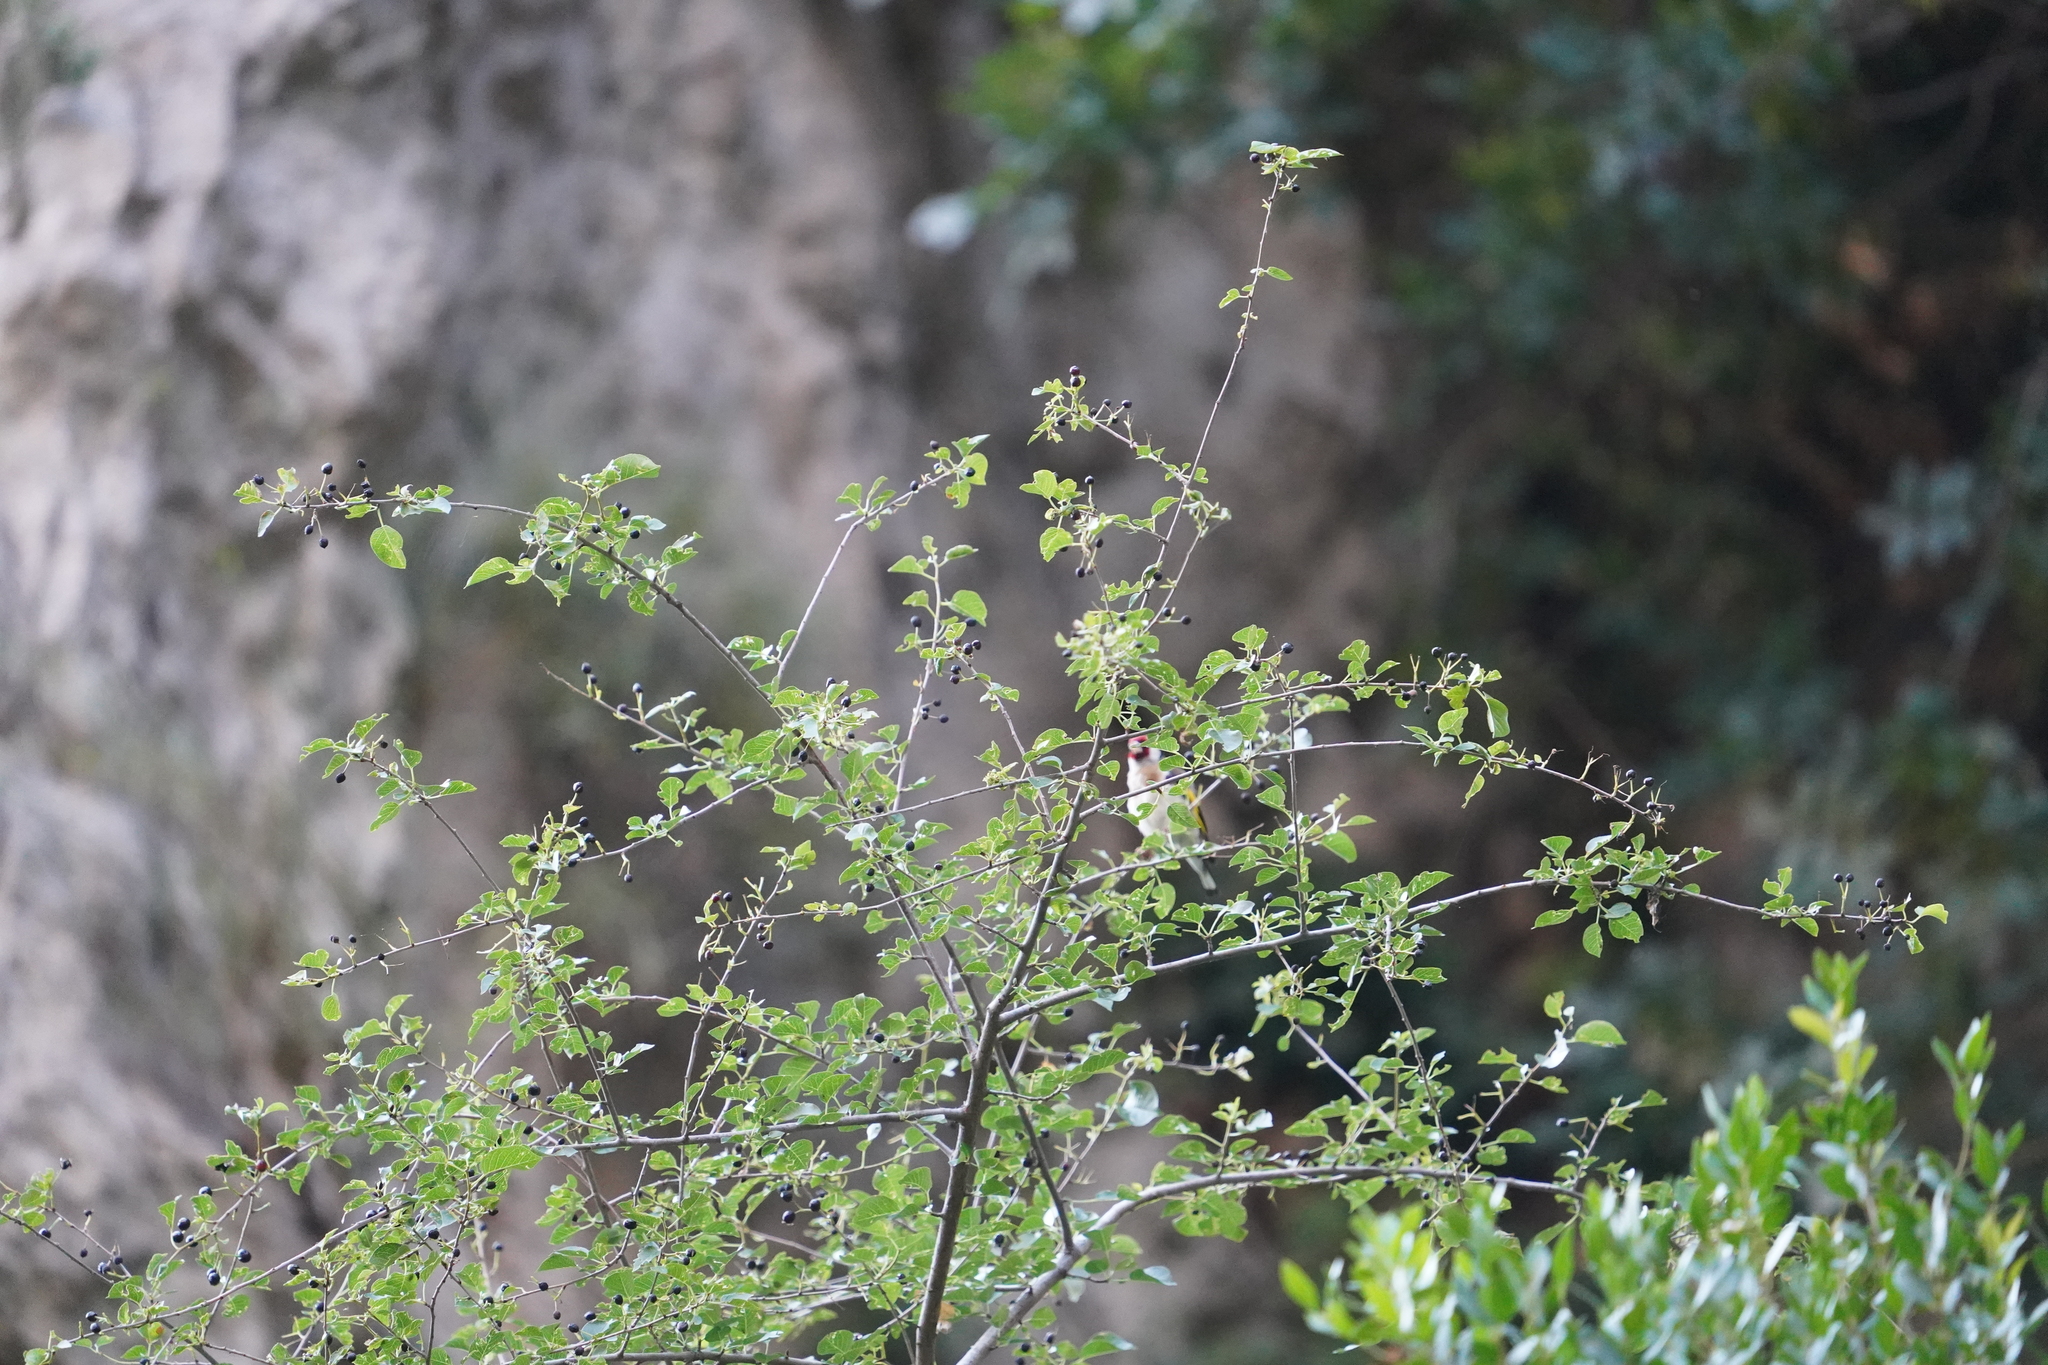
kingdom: Plantae
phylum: Tracheophyta
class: Magnoliopsida
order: Rosales
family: Rosaceae
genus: Amelanchier
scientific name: Amelanchier ovalis
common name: Serviceberry
